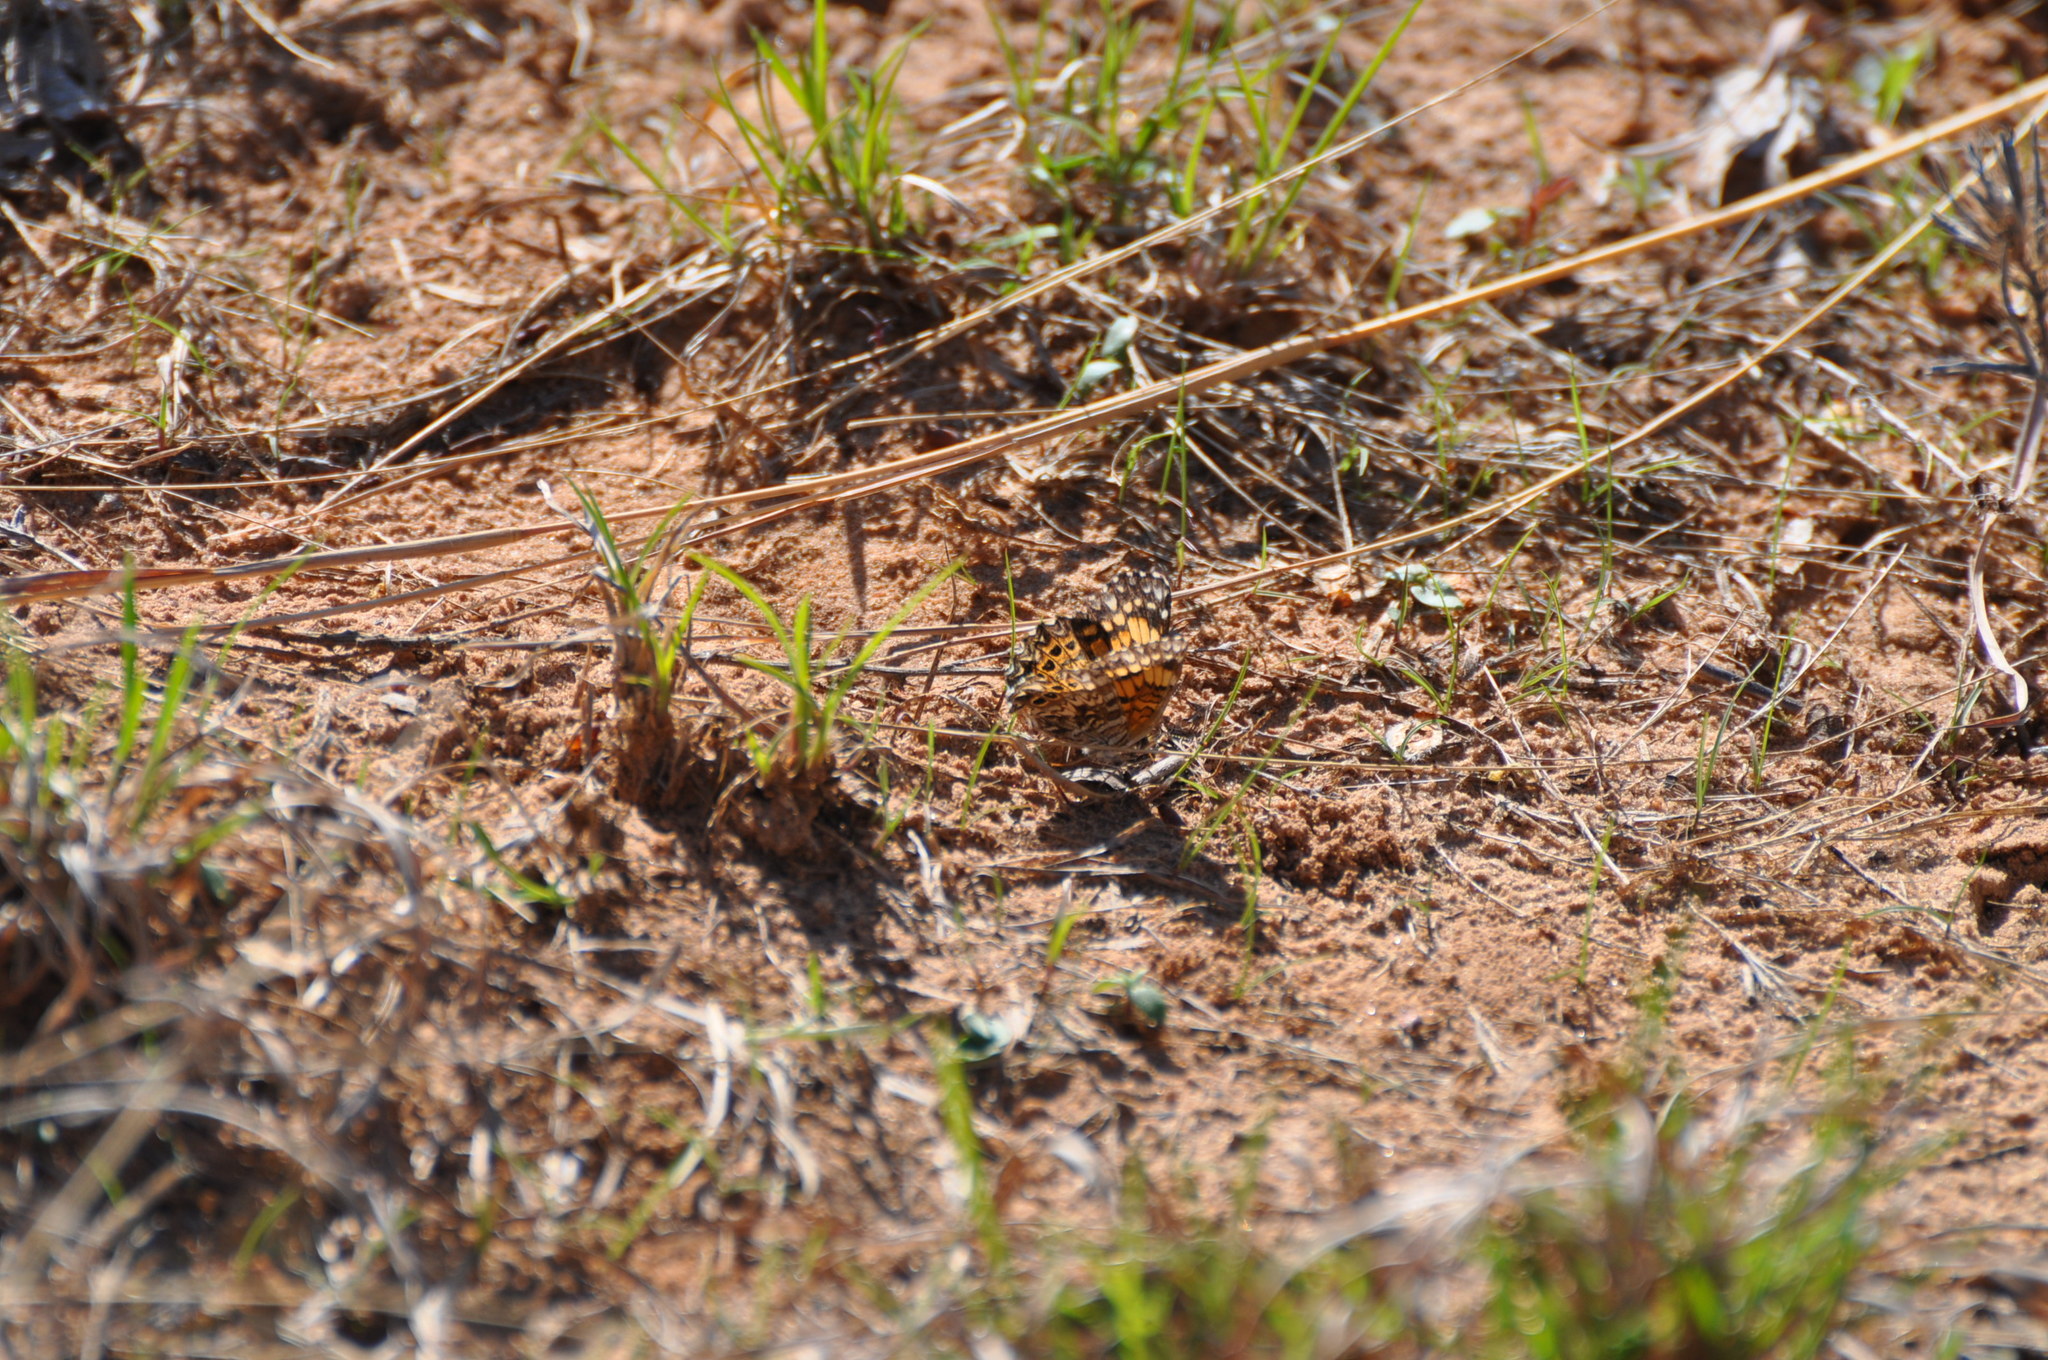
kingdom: Animalia
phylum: Arthropoda
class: Insecta
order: Lepidoptera
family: Nymphalidae
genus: Chlosyne
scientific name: Chlosyne gorgone
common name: Gorgone checkerspot
